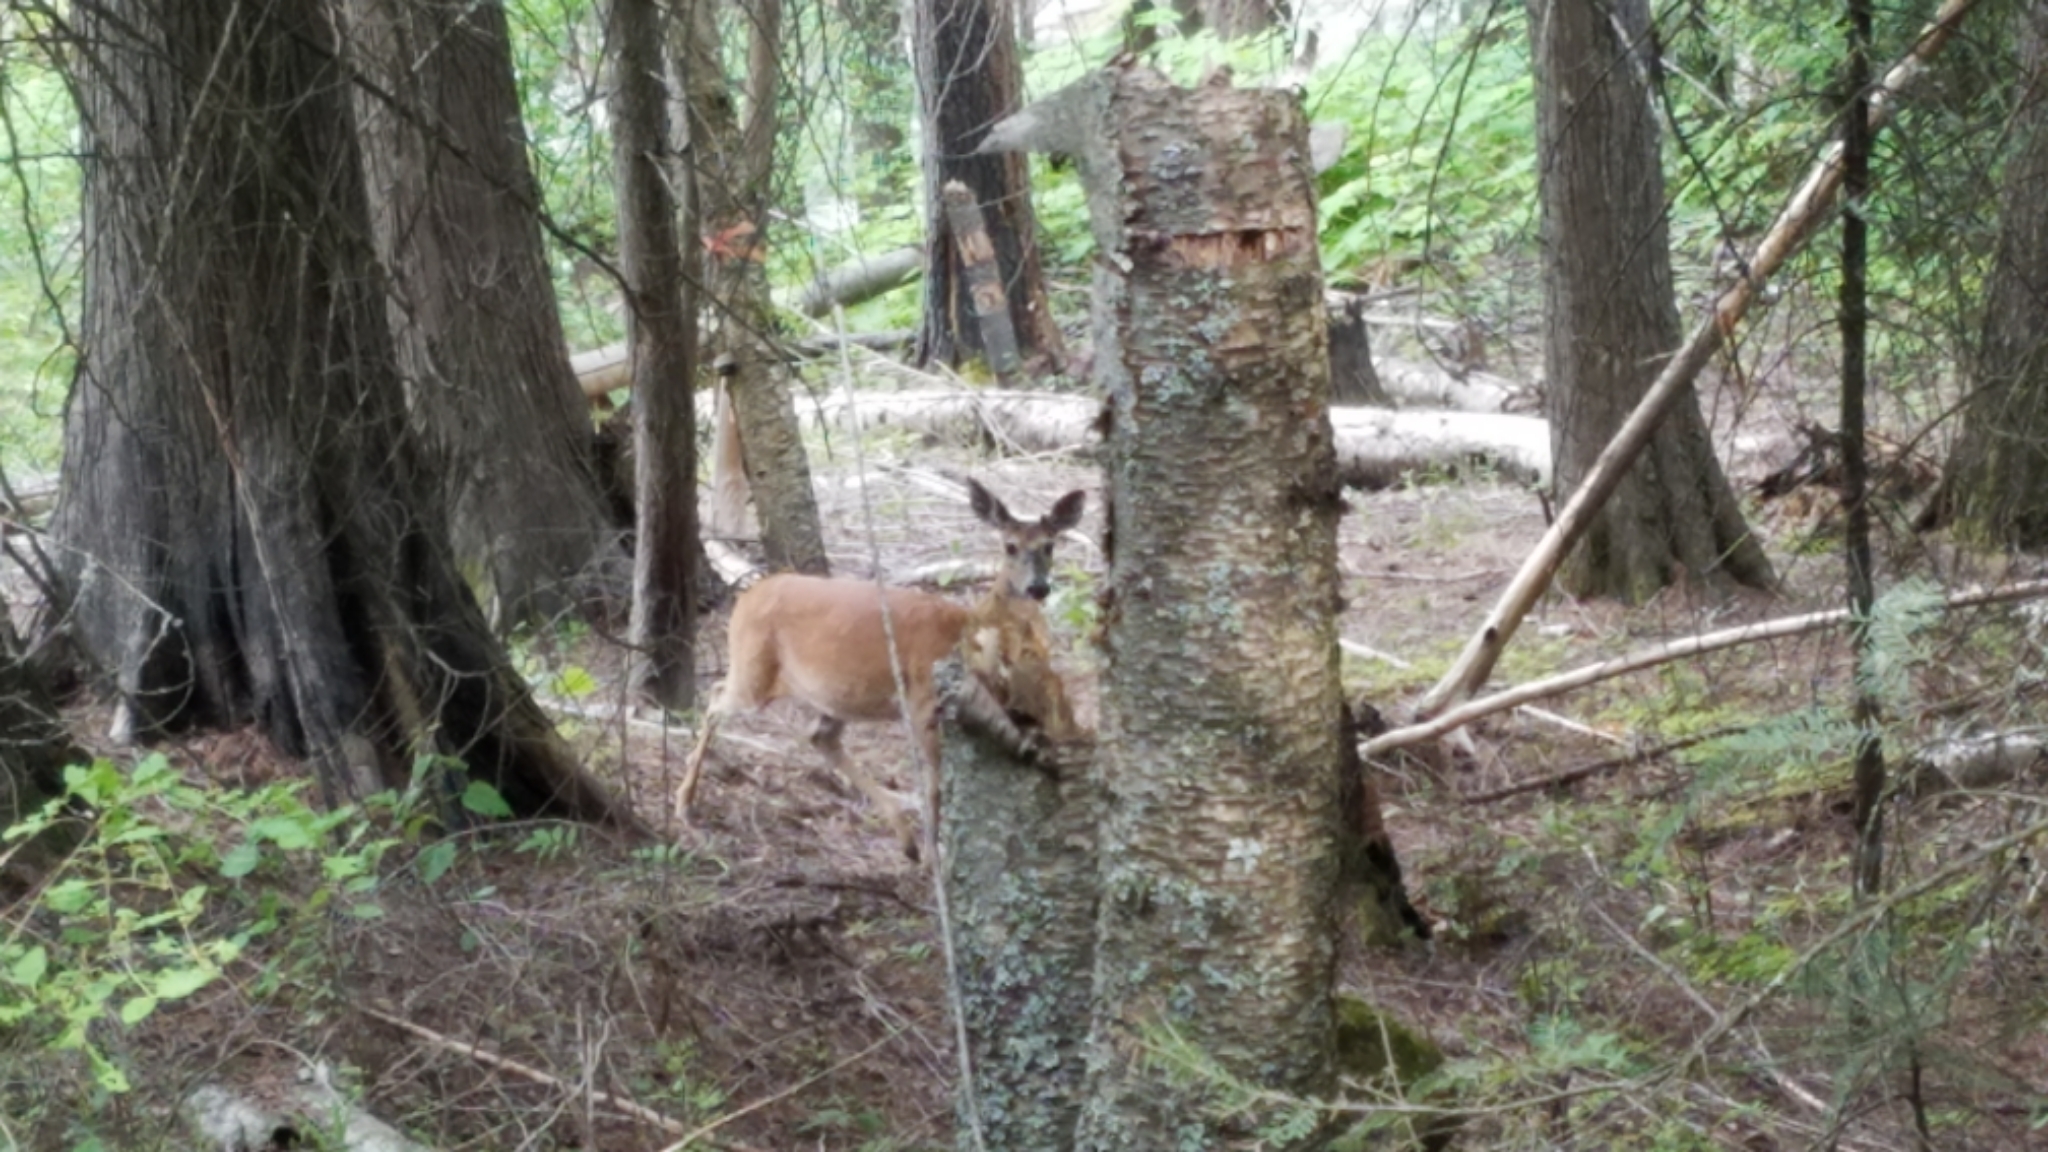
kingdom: Animalia
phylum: Chordata
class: Mammalia
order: Artiodactyla
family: Cervidae
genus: Odocoileus
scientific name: Odocoileus virginianus
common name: White-tailed deer
